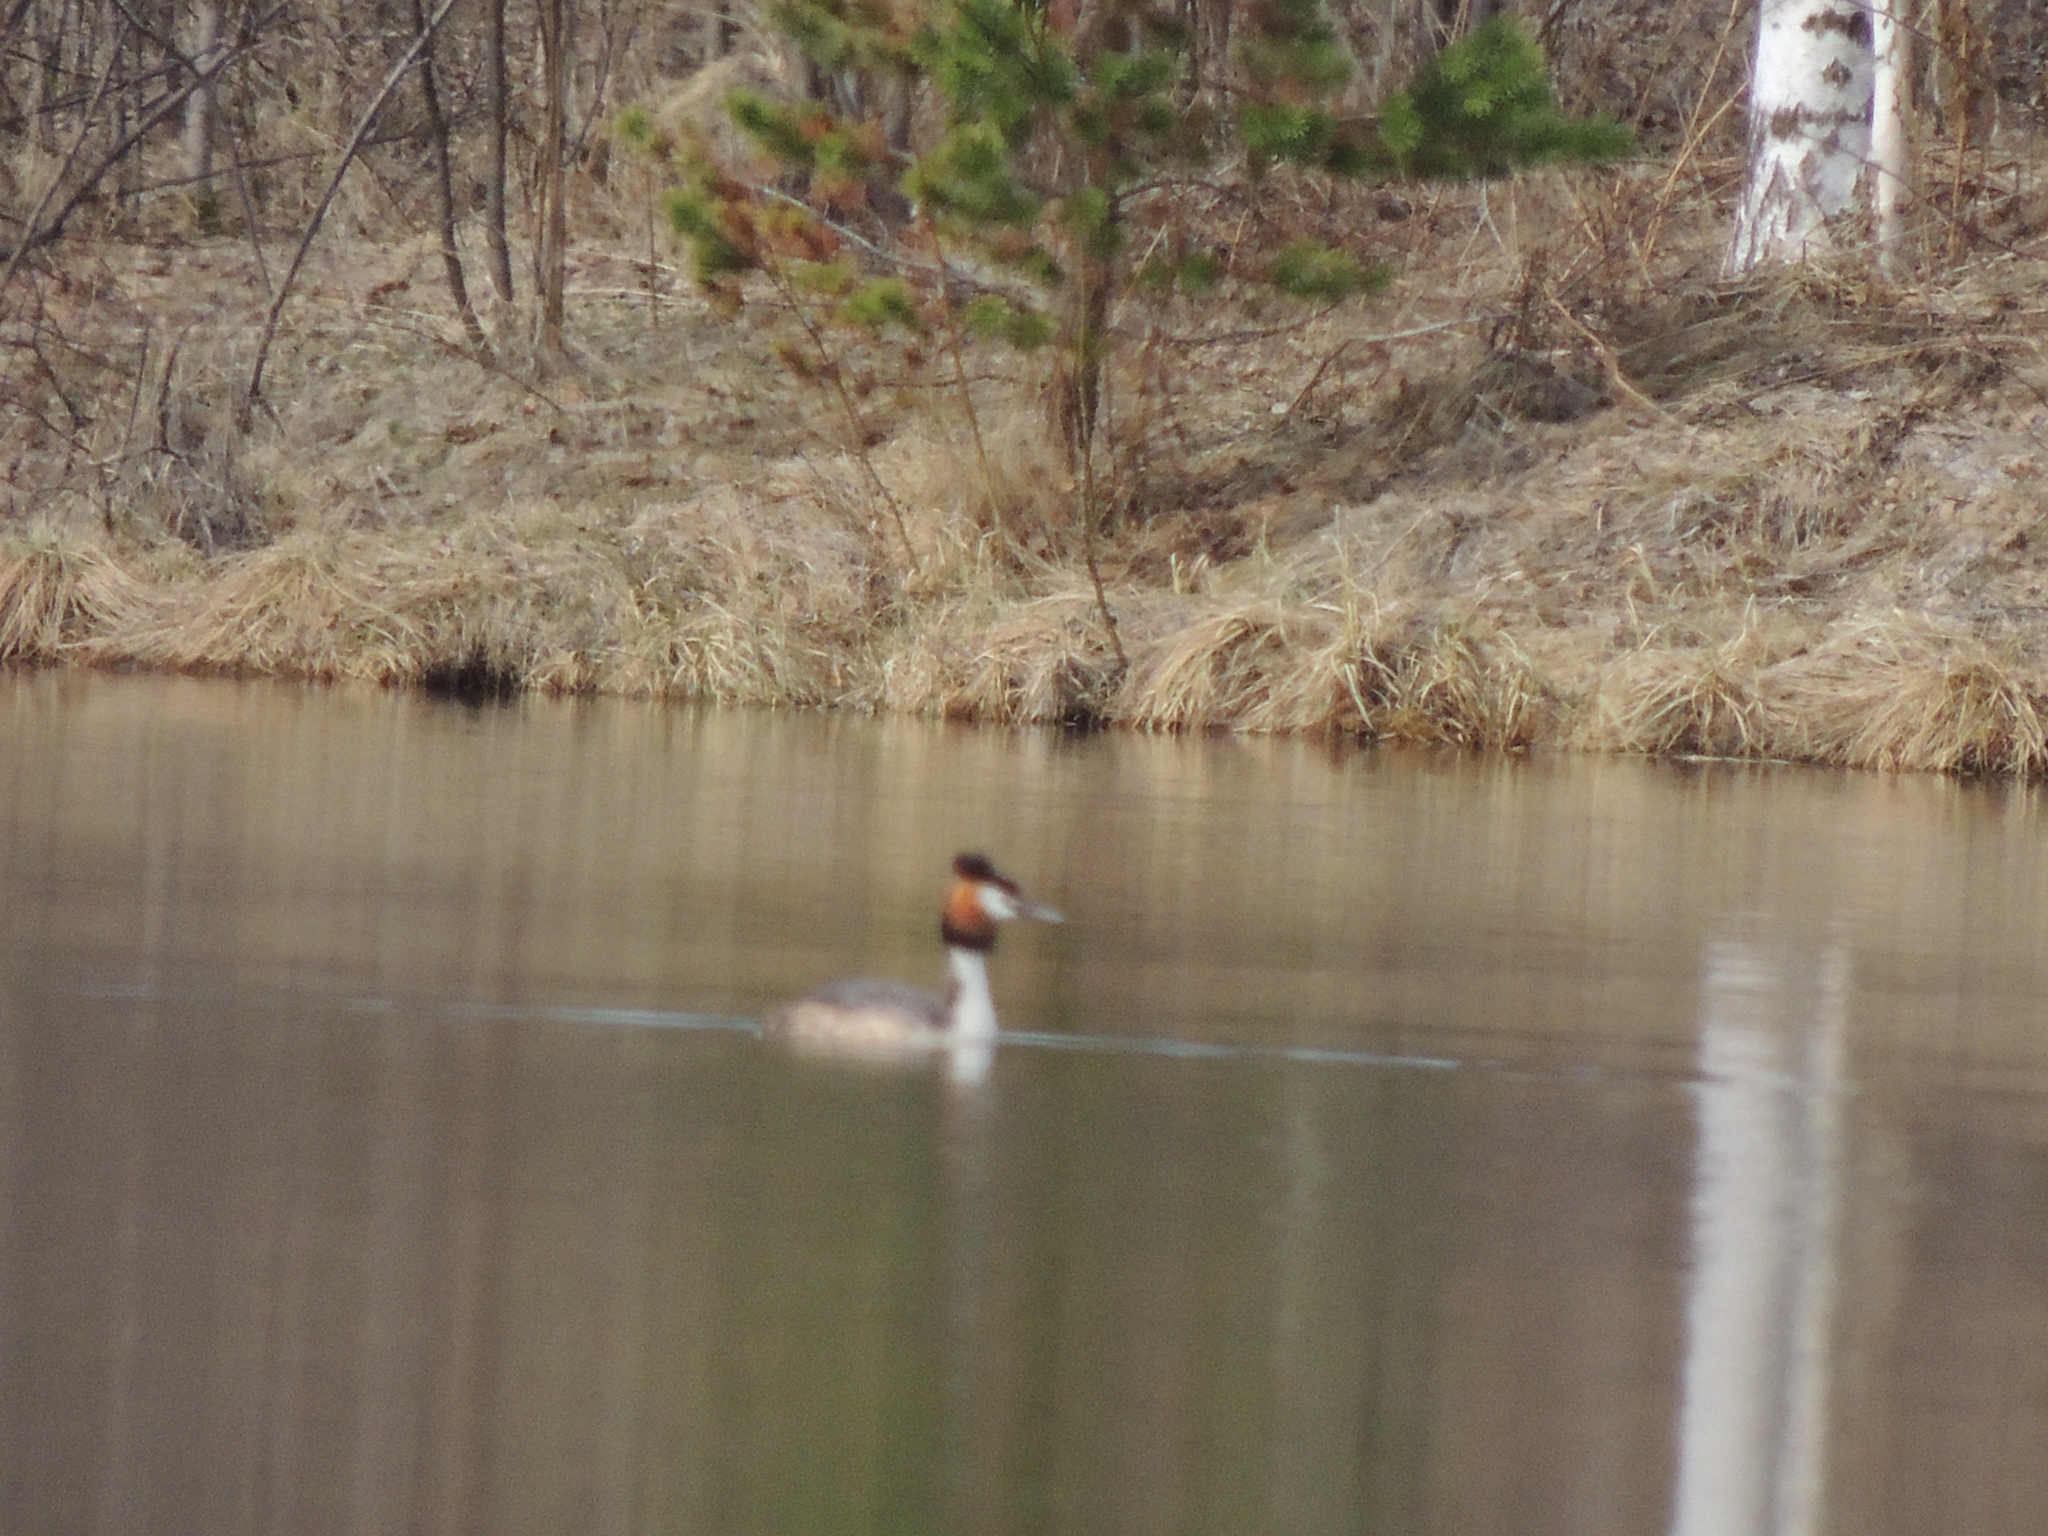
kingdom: Animalia
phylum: Chordata
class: Aves
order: Podicipediformes
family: Podicipedidae
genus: Podiceps
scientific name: Podiceps cristatus
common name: Great crested grebe
